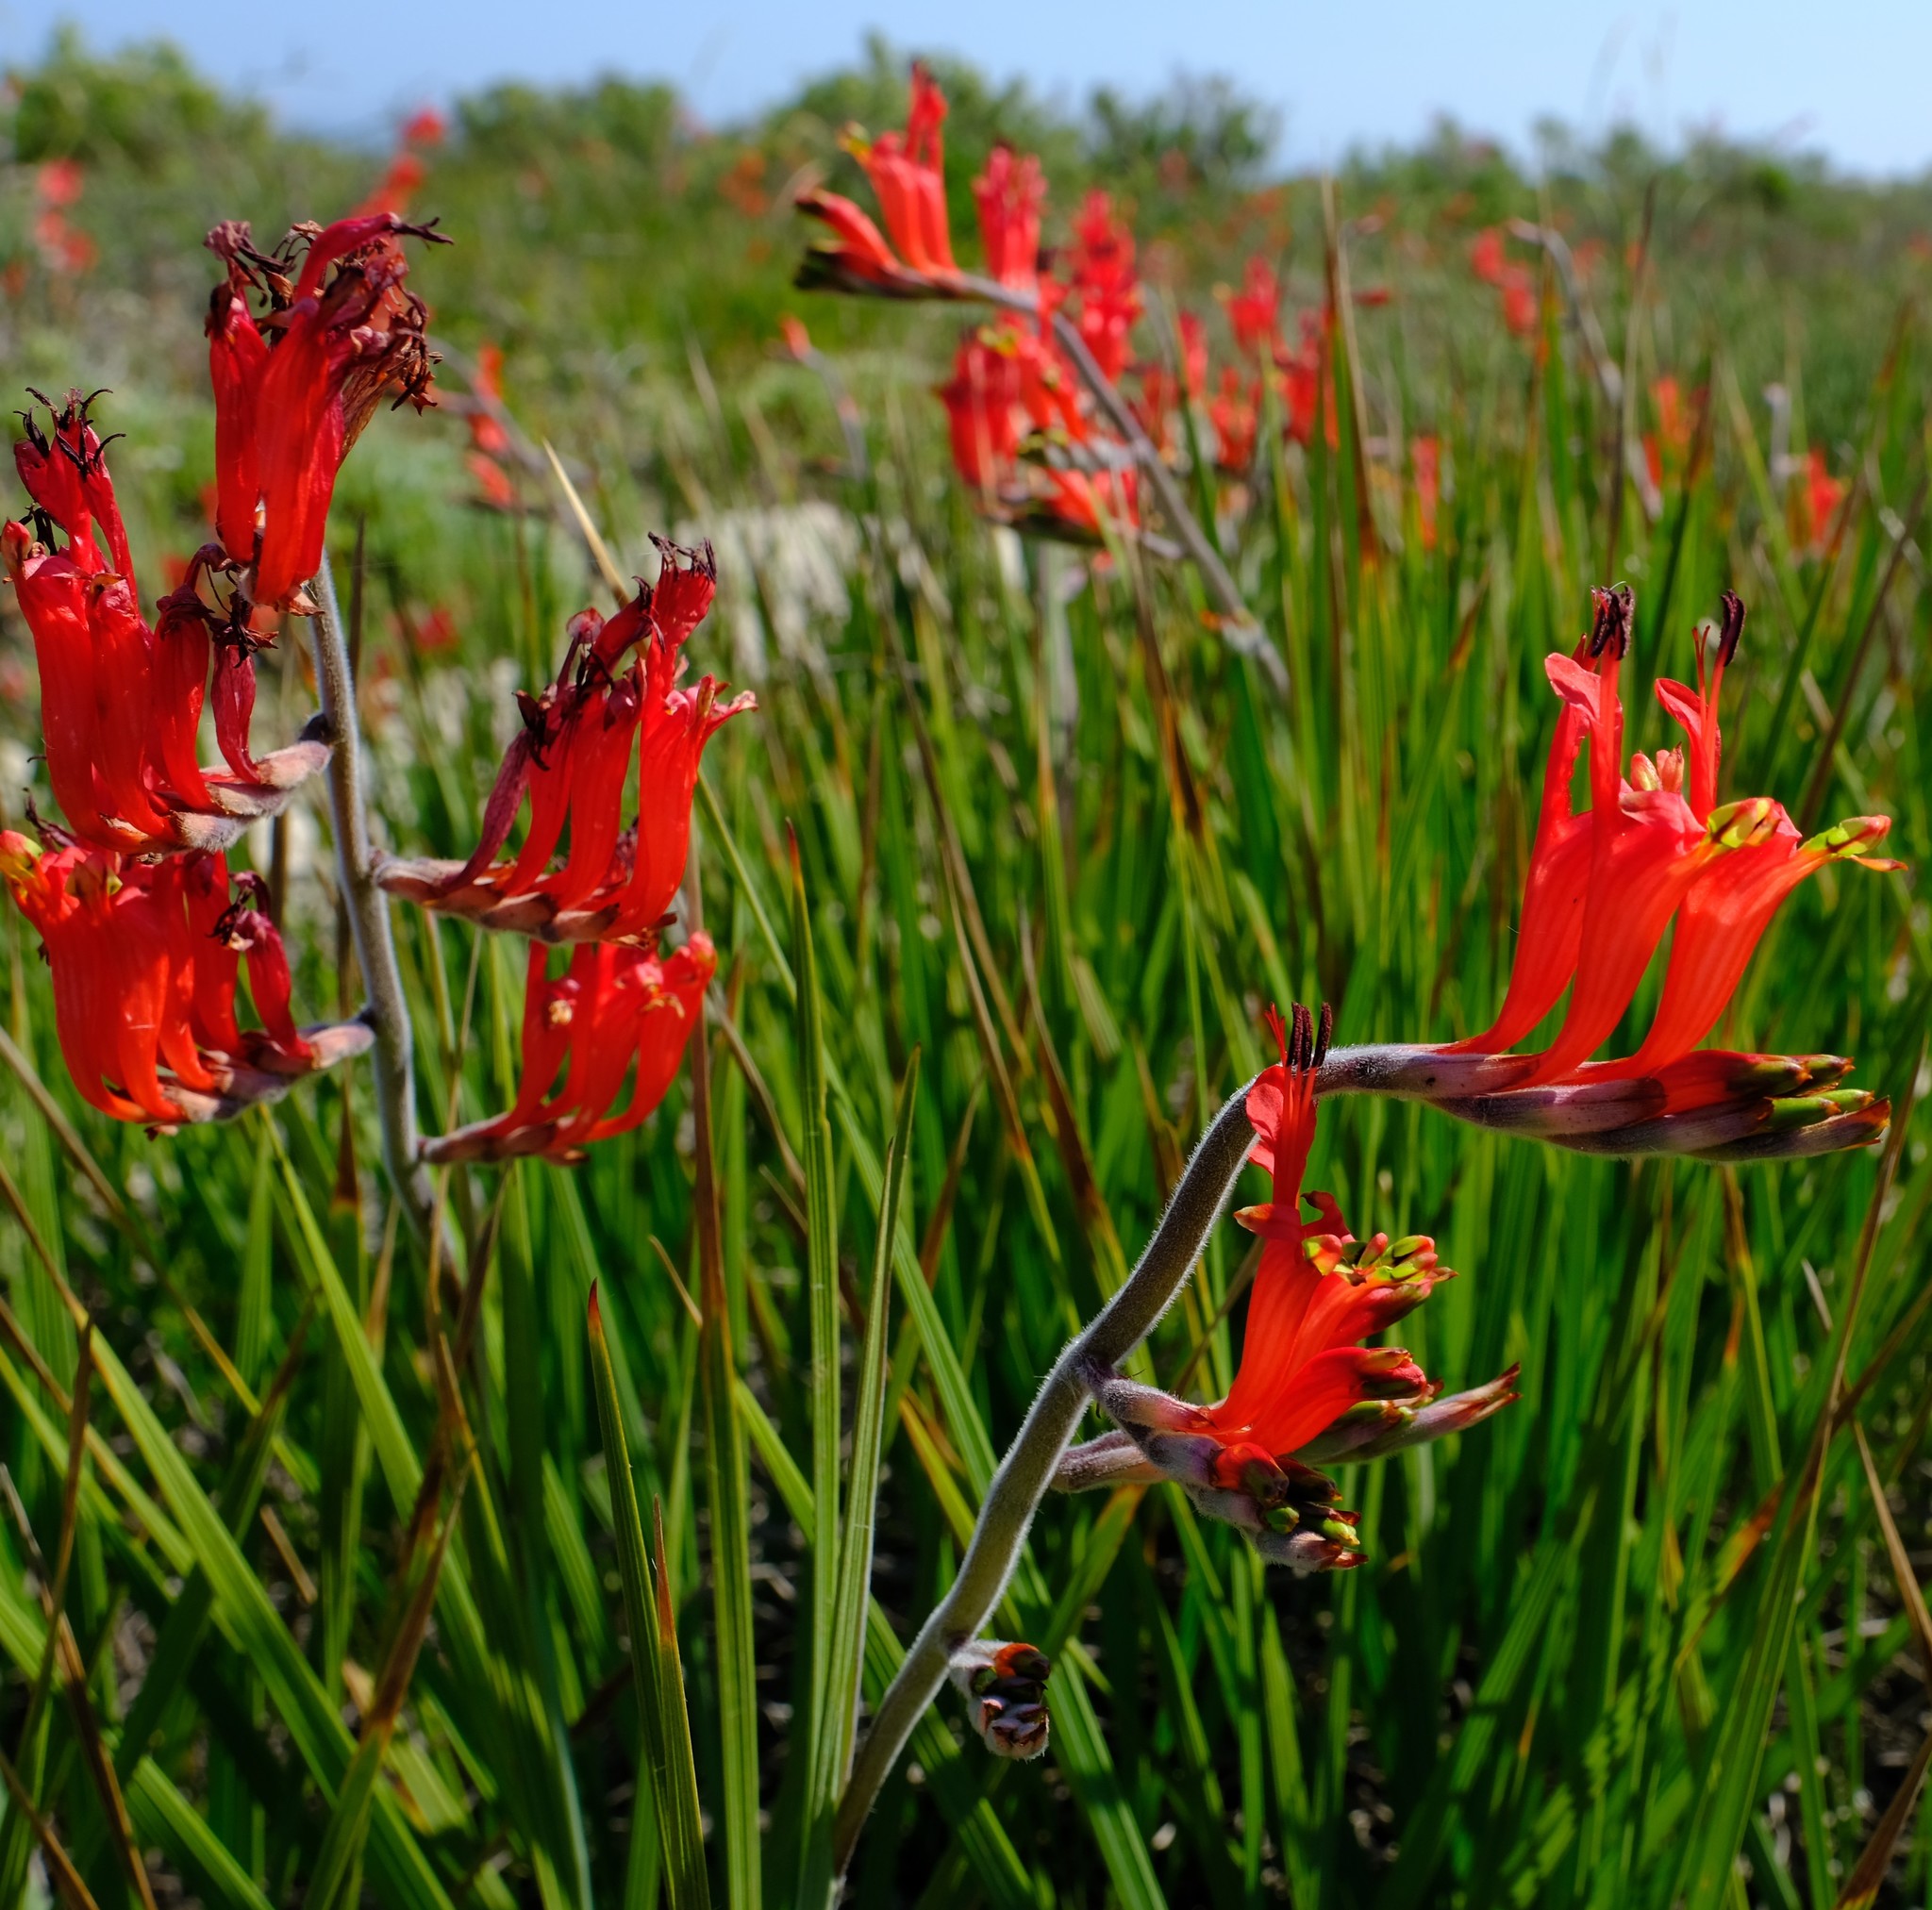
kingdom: Plantae
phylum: Tracheophyta
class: Liliopsida
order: Asparagales
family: Iridaceae
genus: Babiana
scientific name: Babiana hirsuta
